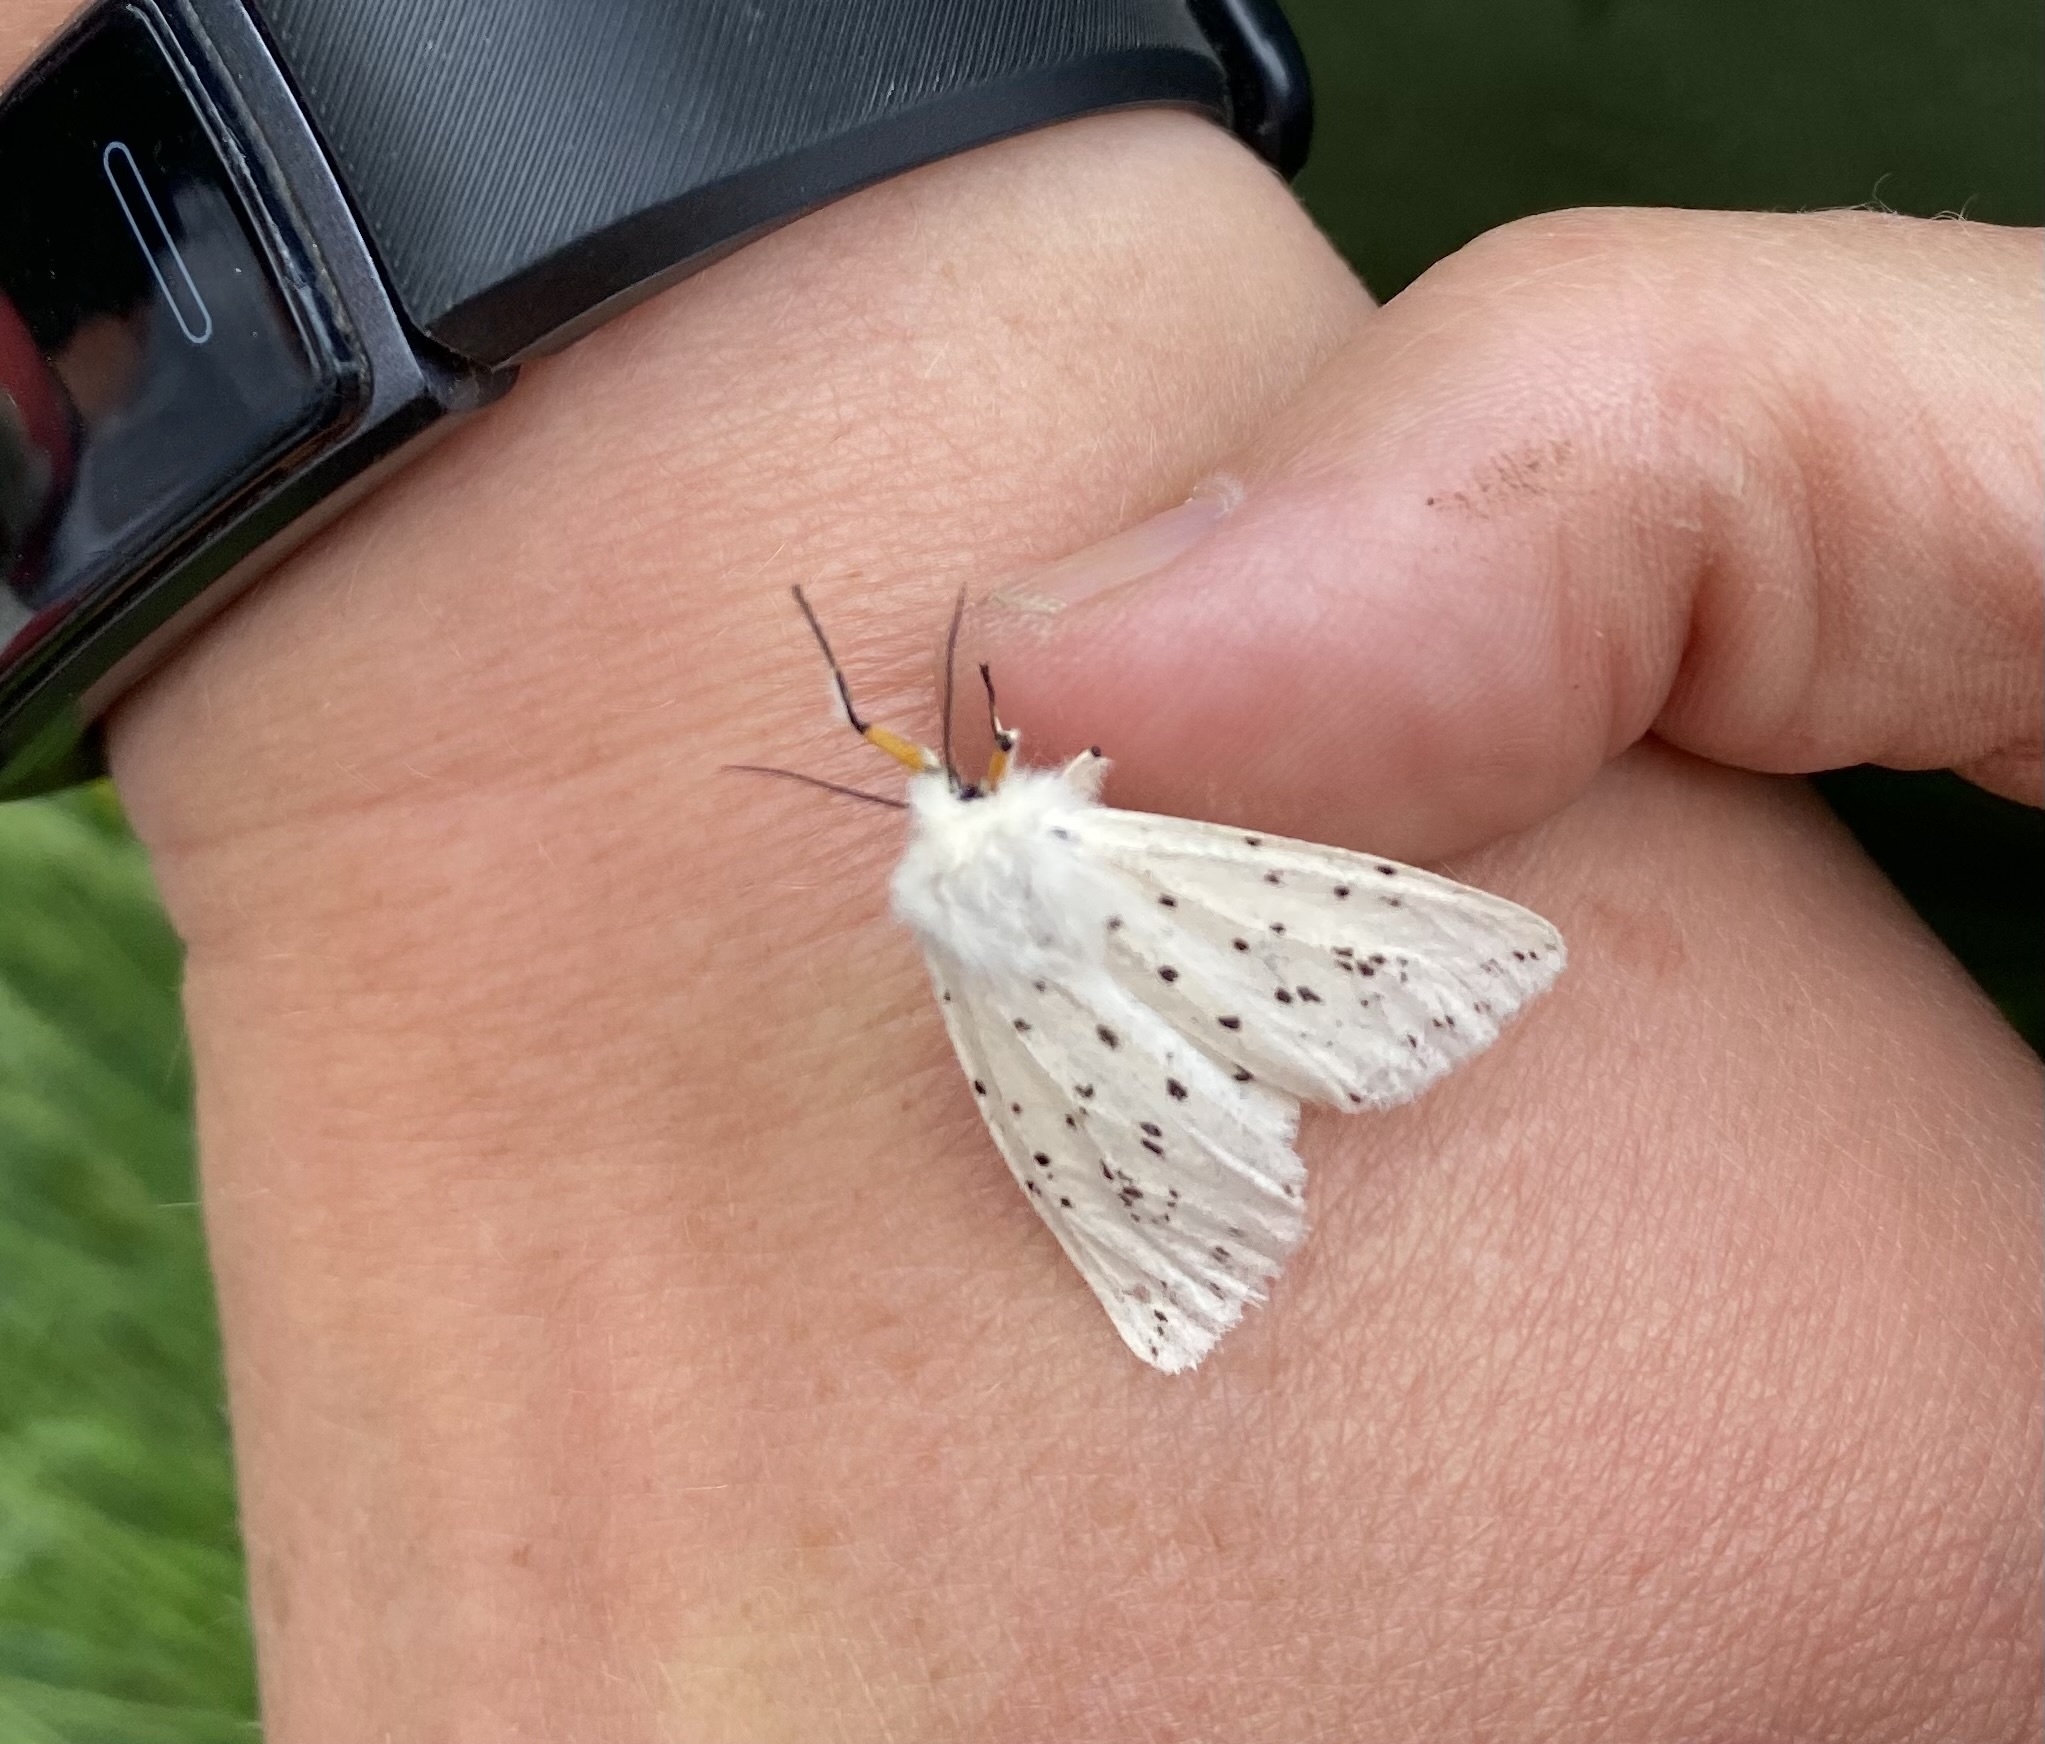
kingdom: Animalia
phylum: Arthropoda
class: Insecta
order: Lepidoptera
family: Erebidae
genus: Spilosoma
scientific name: Spilosoma lubricipeda
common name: White ermine
